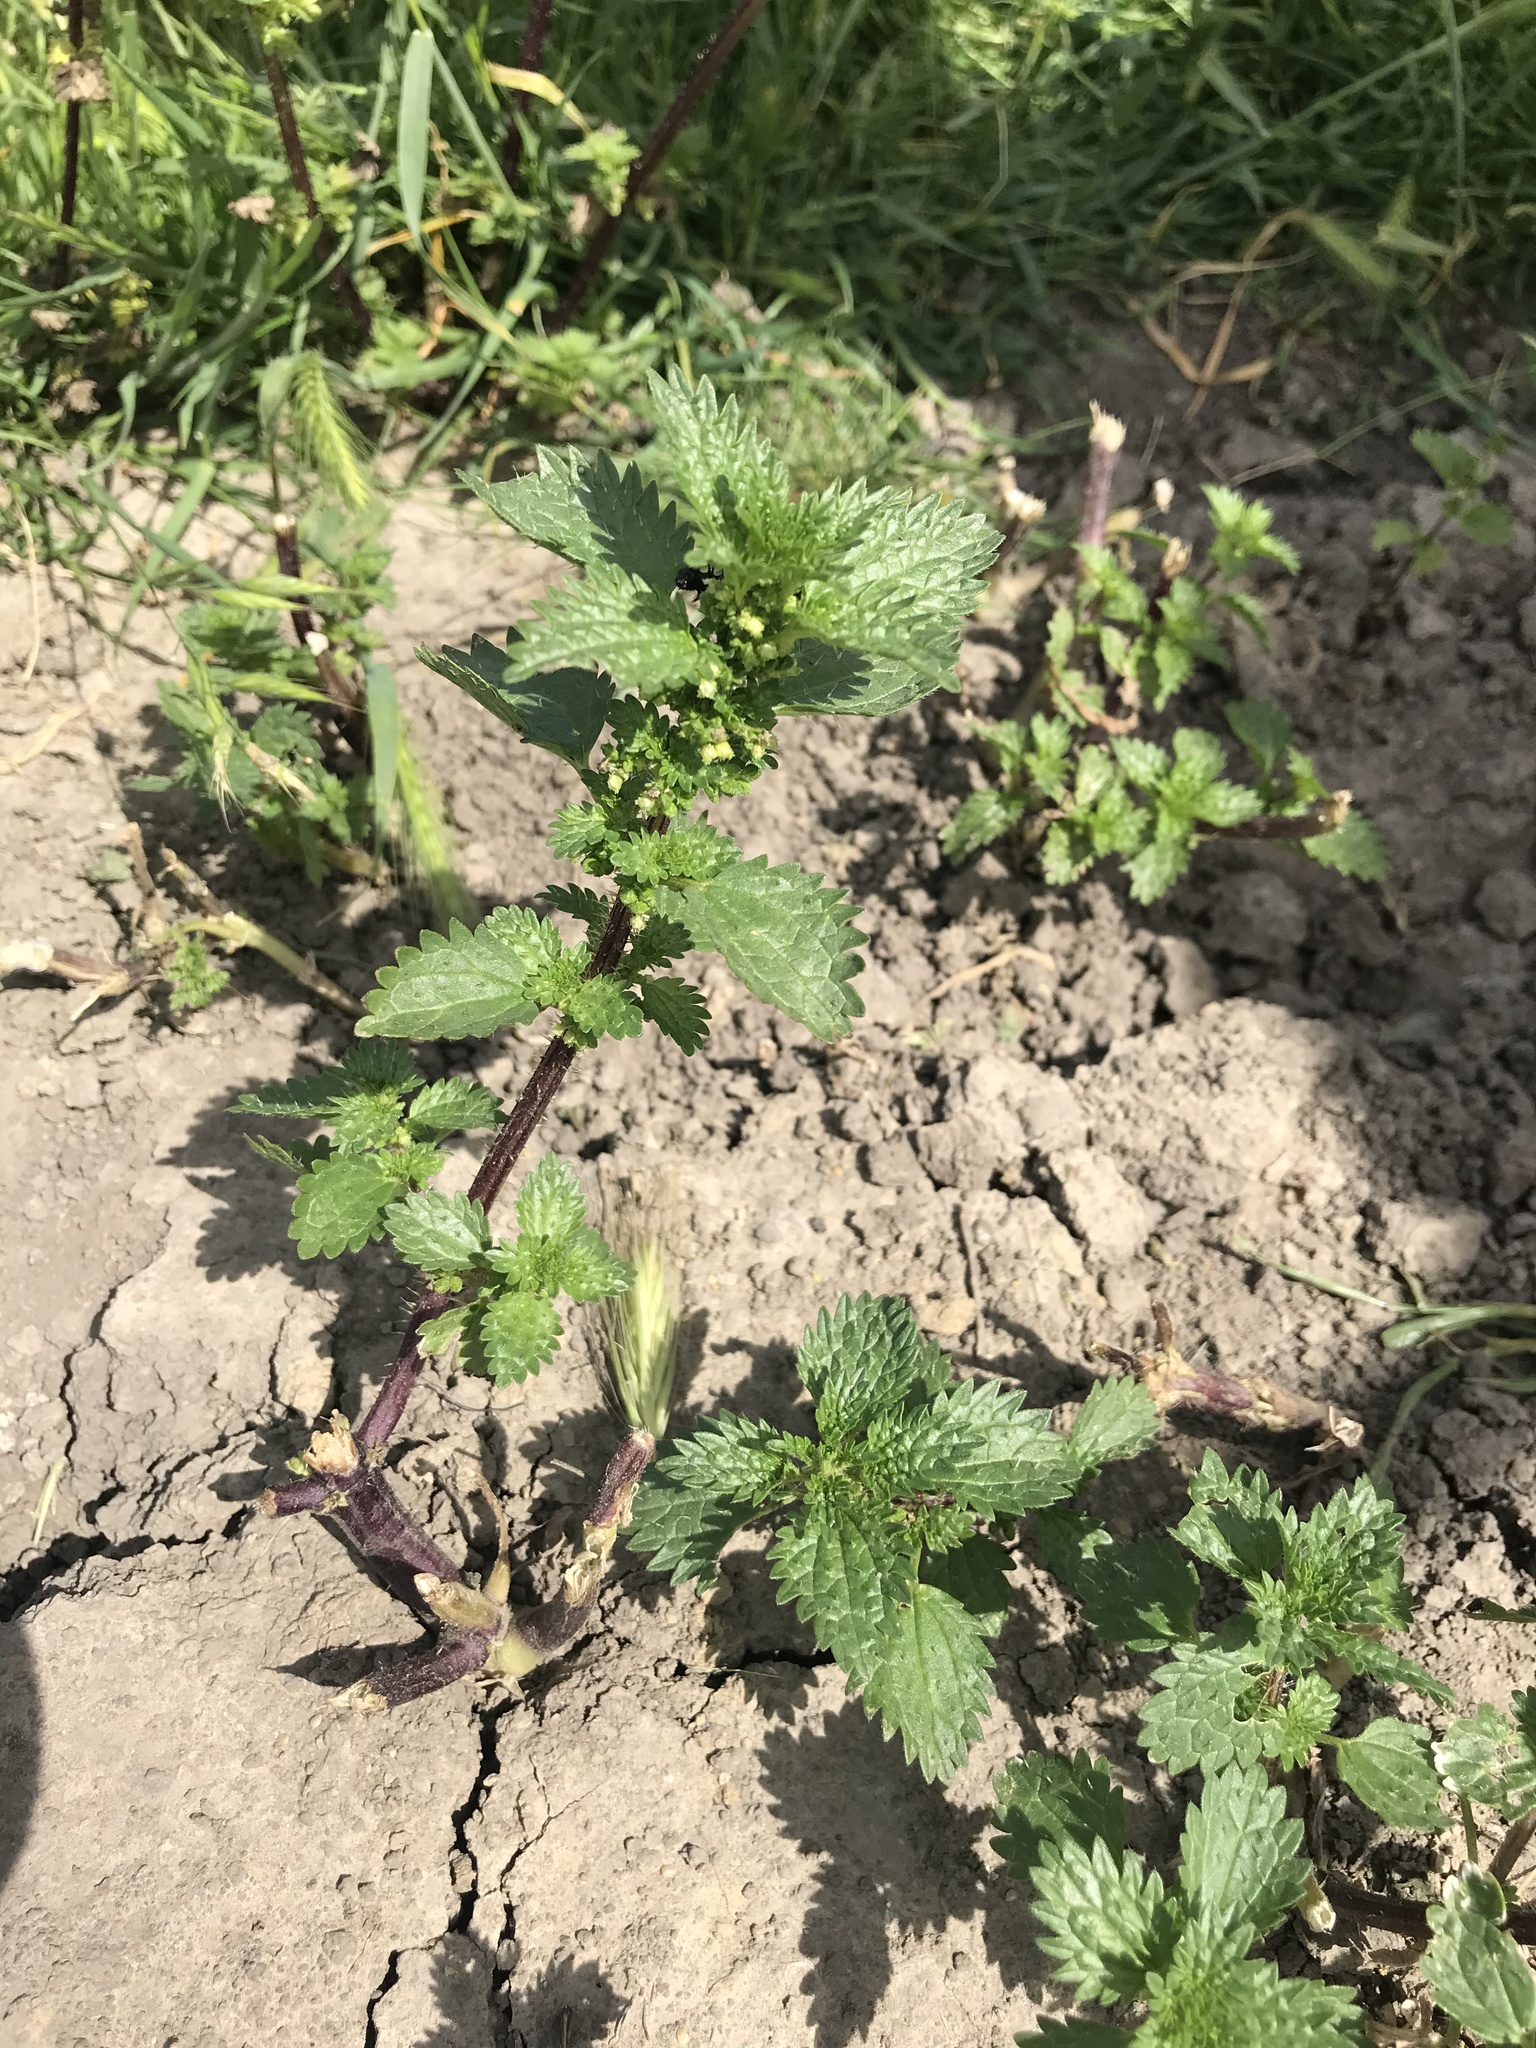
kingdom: Plantae
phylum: Tracheophyta
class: Magnoliopsida
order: Rosales
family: Urticaceae
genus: Urtica
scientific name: Urtica urens
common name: Dwarf nettle
